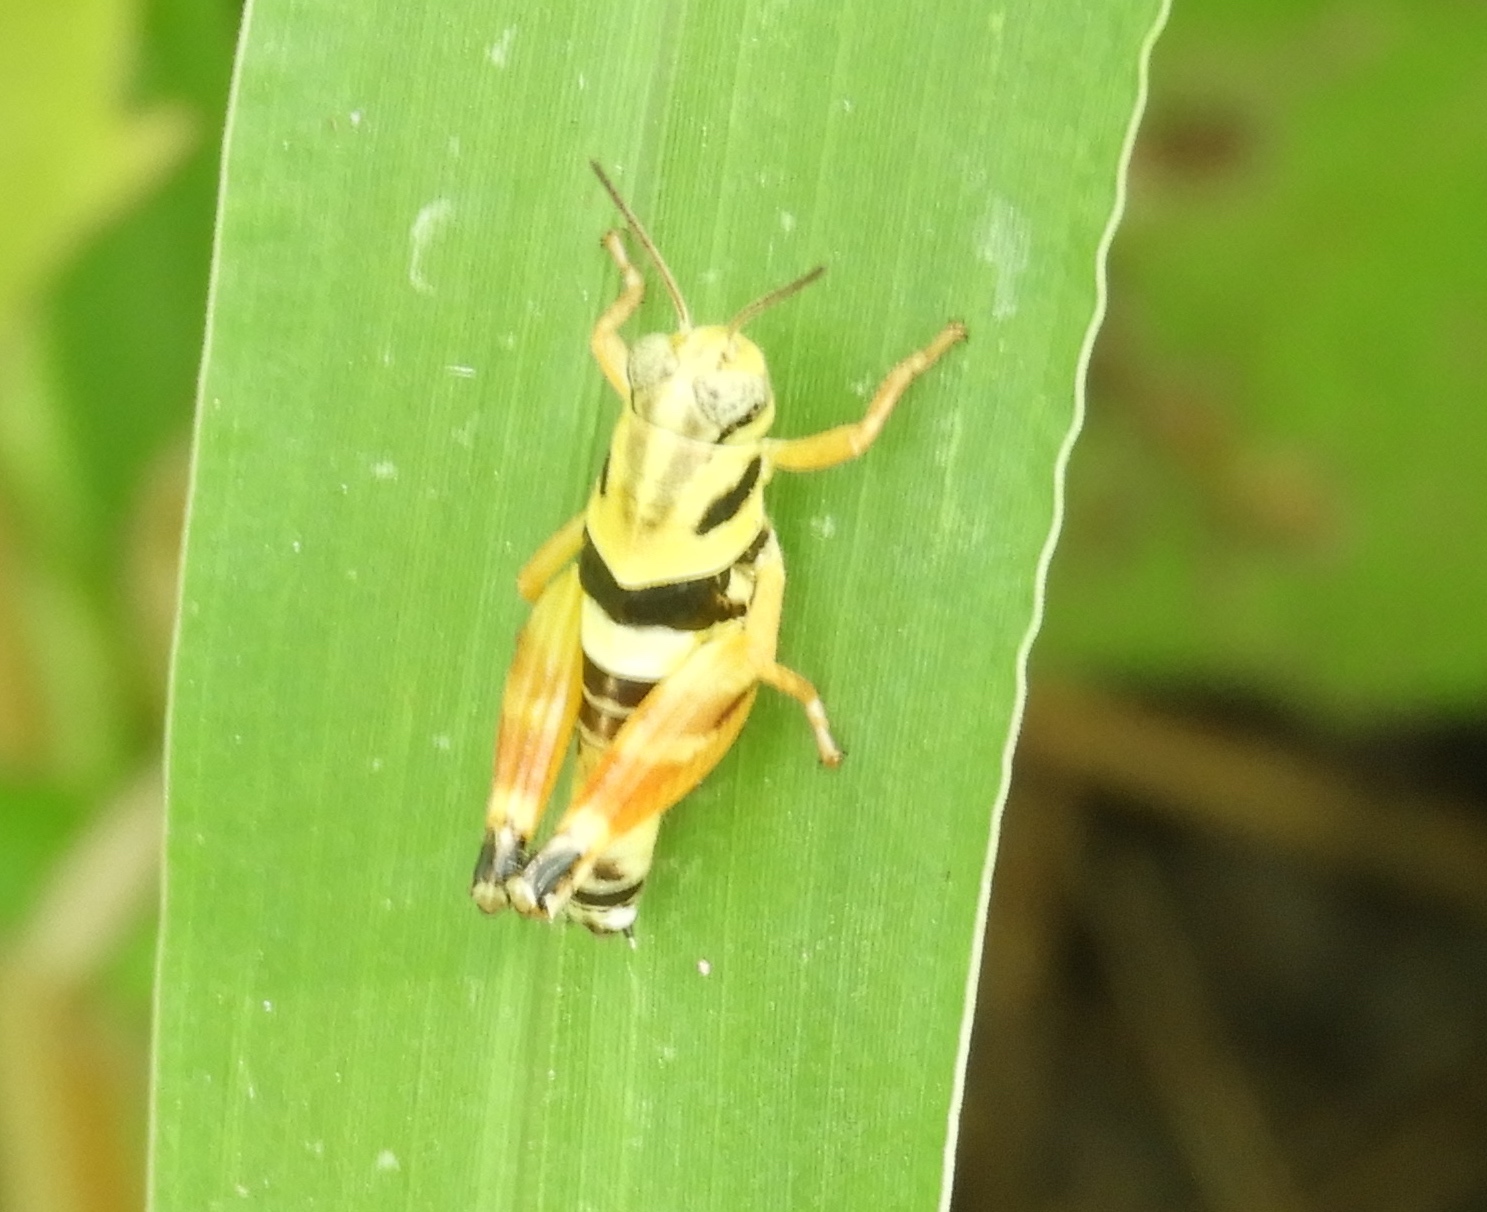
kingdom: Animalia
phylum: Arthropoda
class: Insecta
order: Orthoptera
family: Acrididae
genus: Aidemona
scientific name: Aidemona azteca
